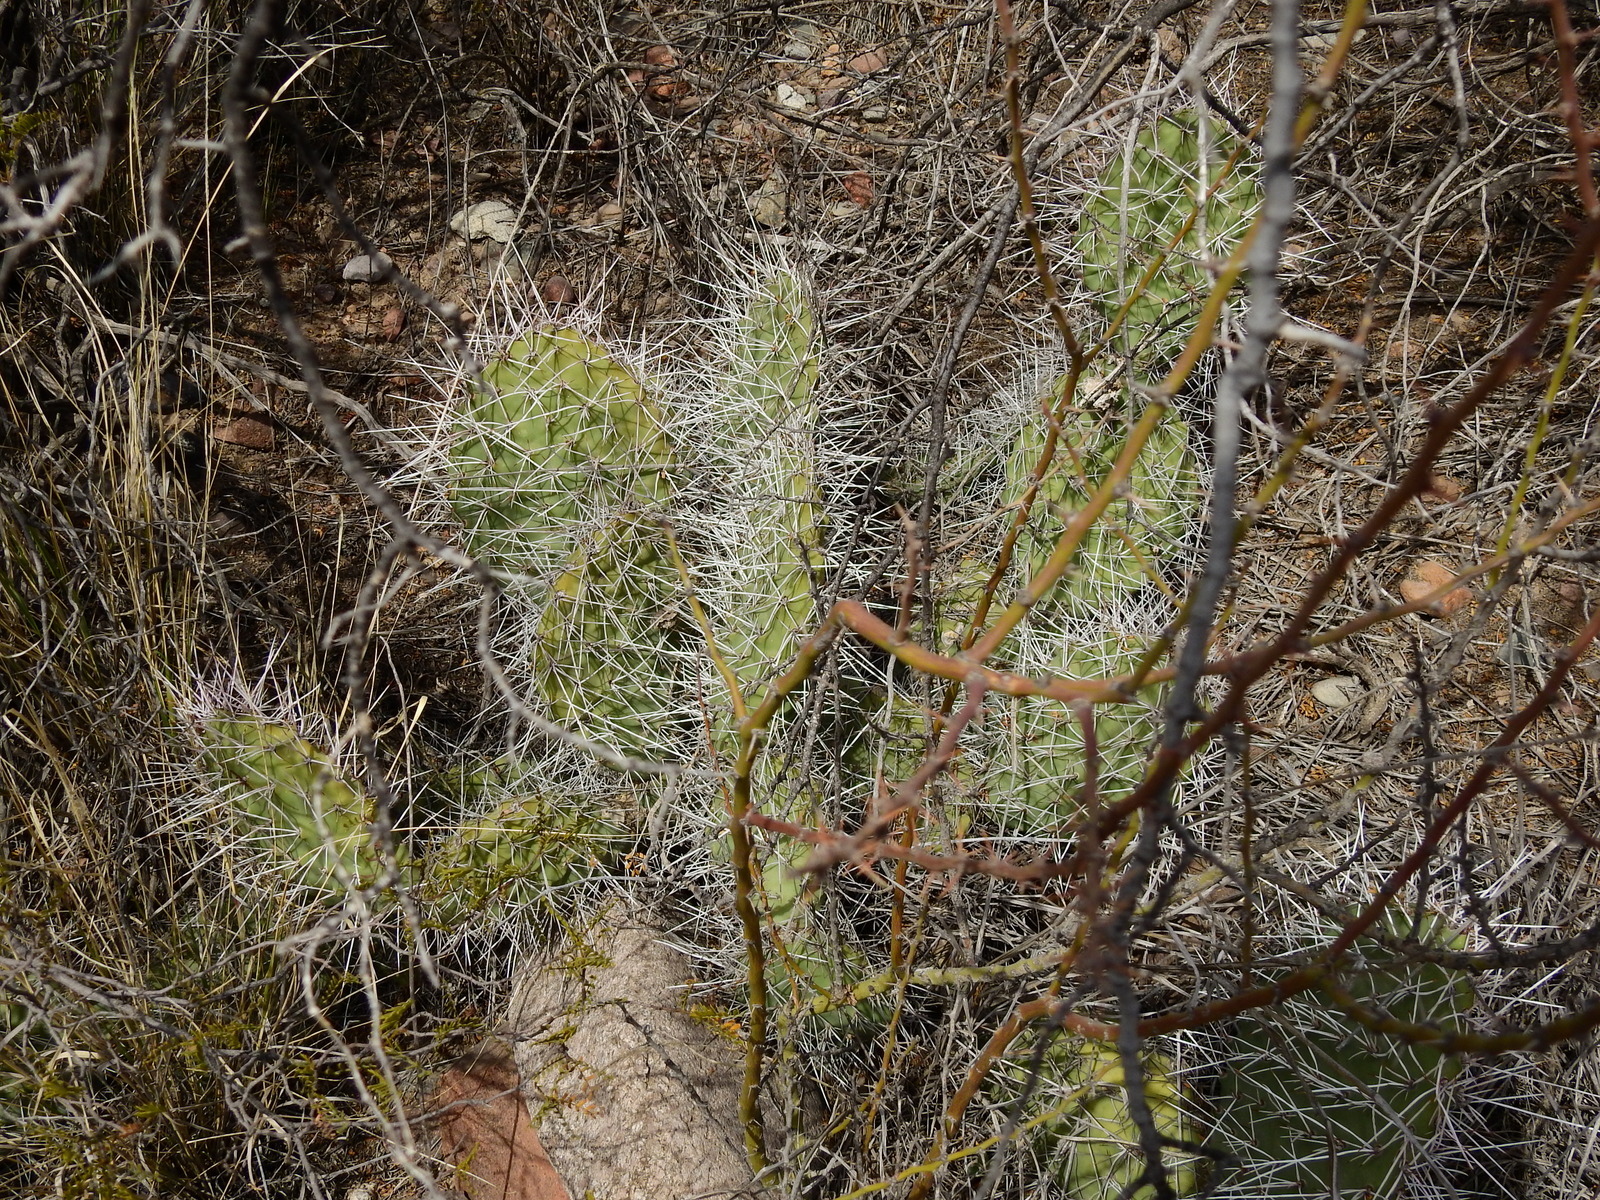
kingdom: Plantae
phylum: Tracheophyta
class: Magnoliopsida
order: Caryophyllales
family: Cactaceae
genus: Opuntia
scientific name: Opuntia sulphurea
